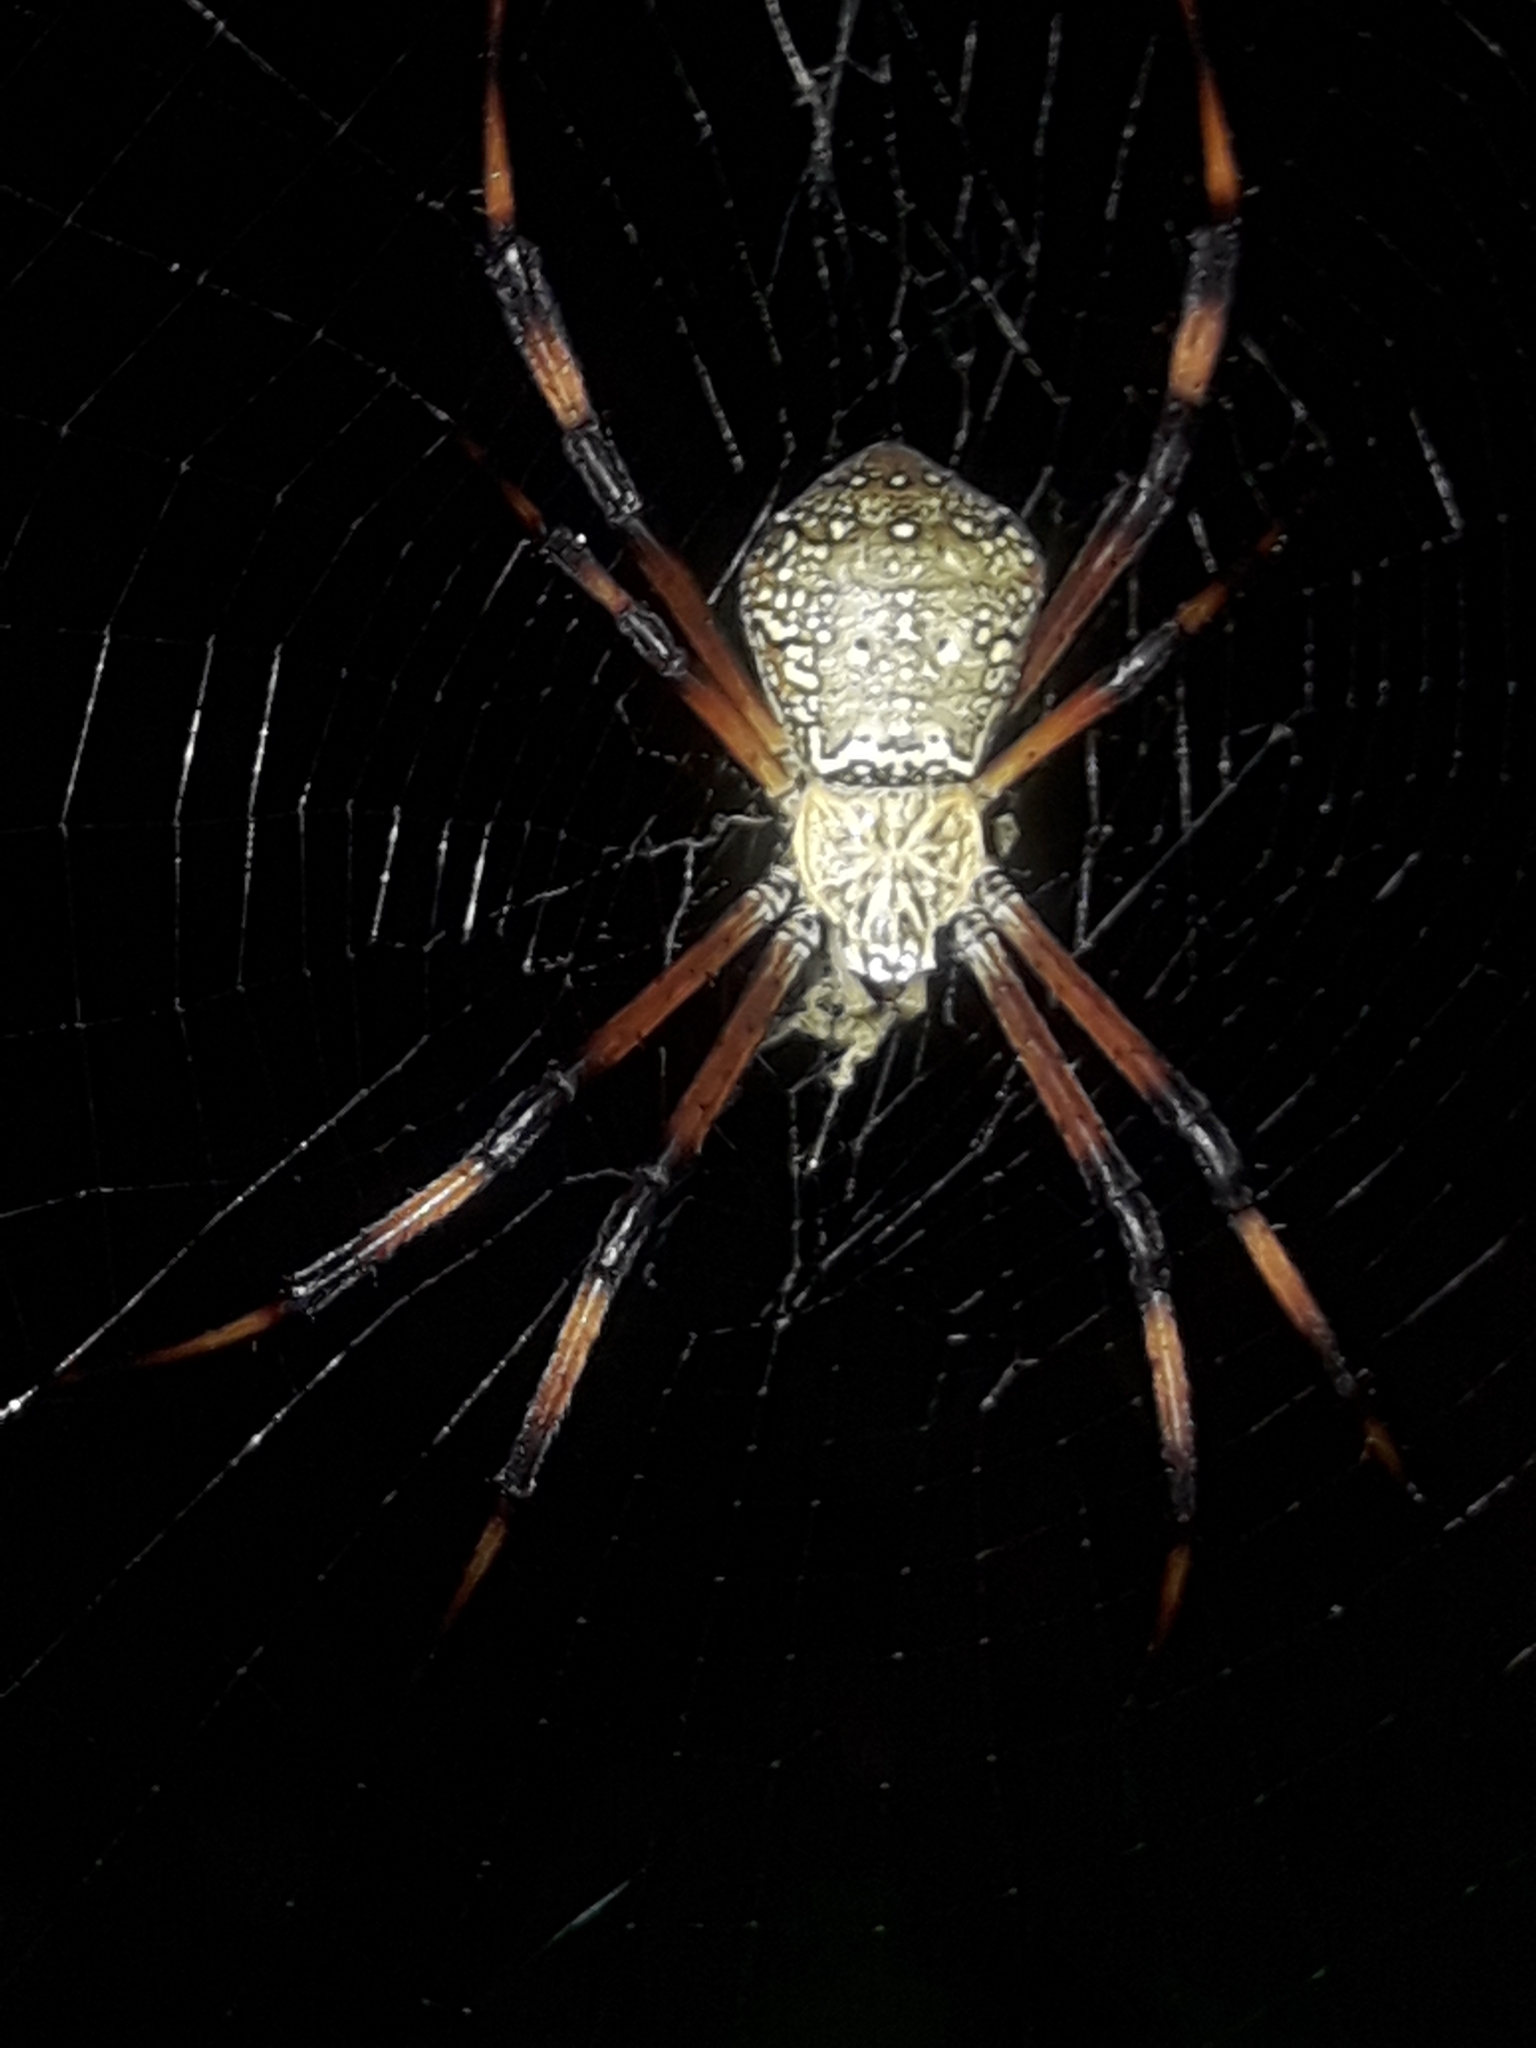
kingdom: Animalia
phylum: Arthropoda
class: Arachnida
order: Araneae
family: Araneidae
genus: Argiope
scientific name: Argiope pentagona
